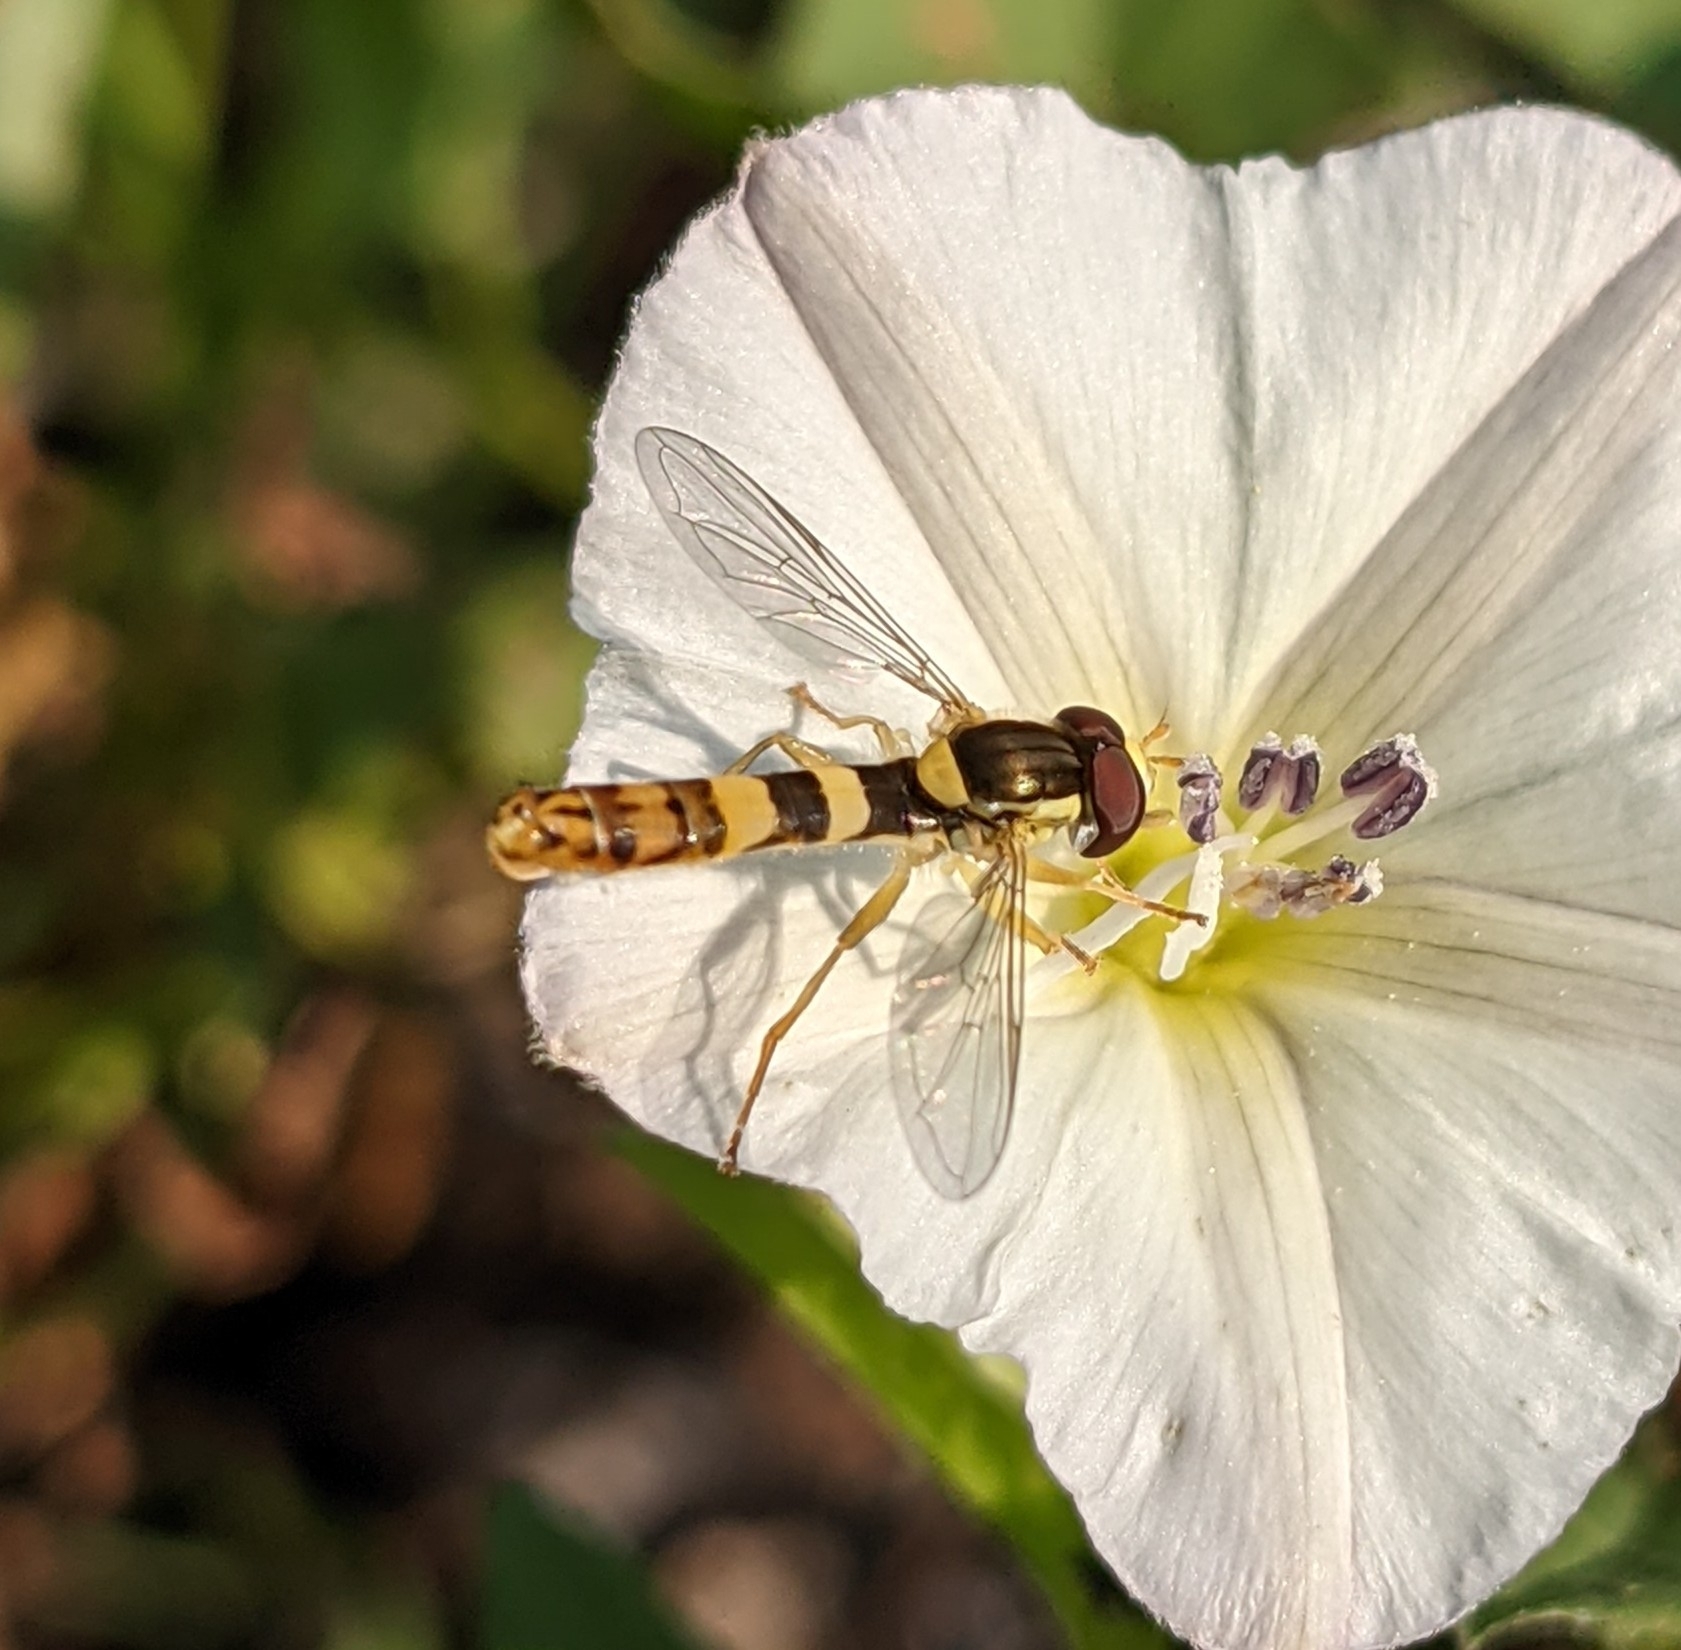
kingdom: Animalia
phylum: Arthropoda
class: Insecta
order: Diptera
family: Syrphidae
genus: Sphaerophoria
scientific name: Sphaerophoria scripta
